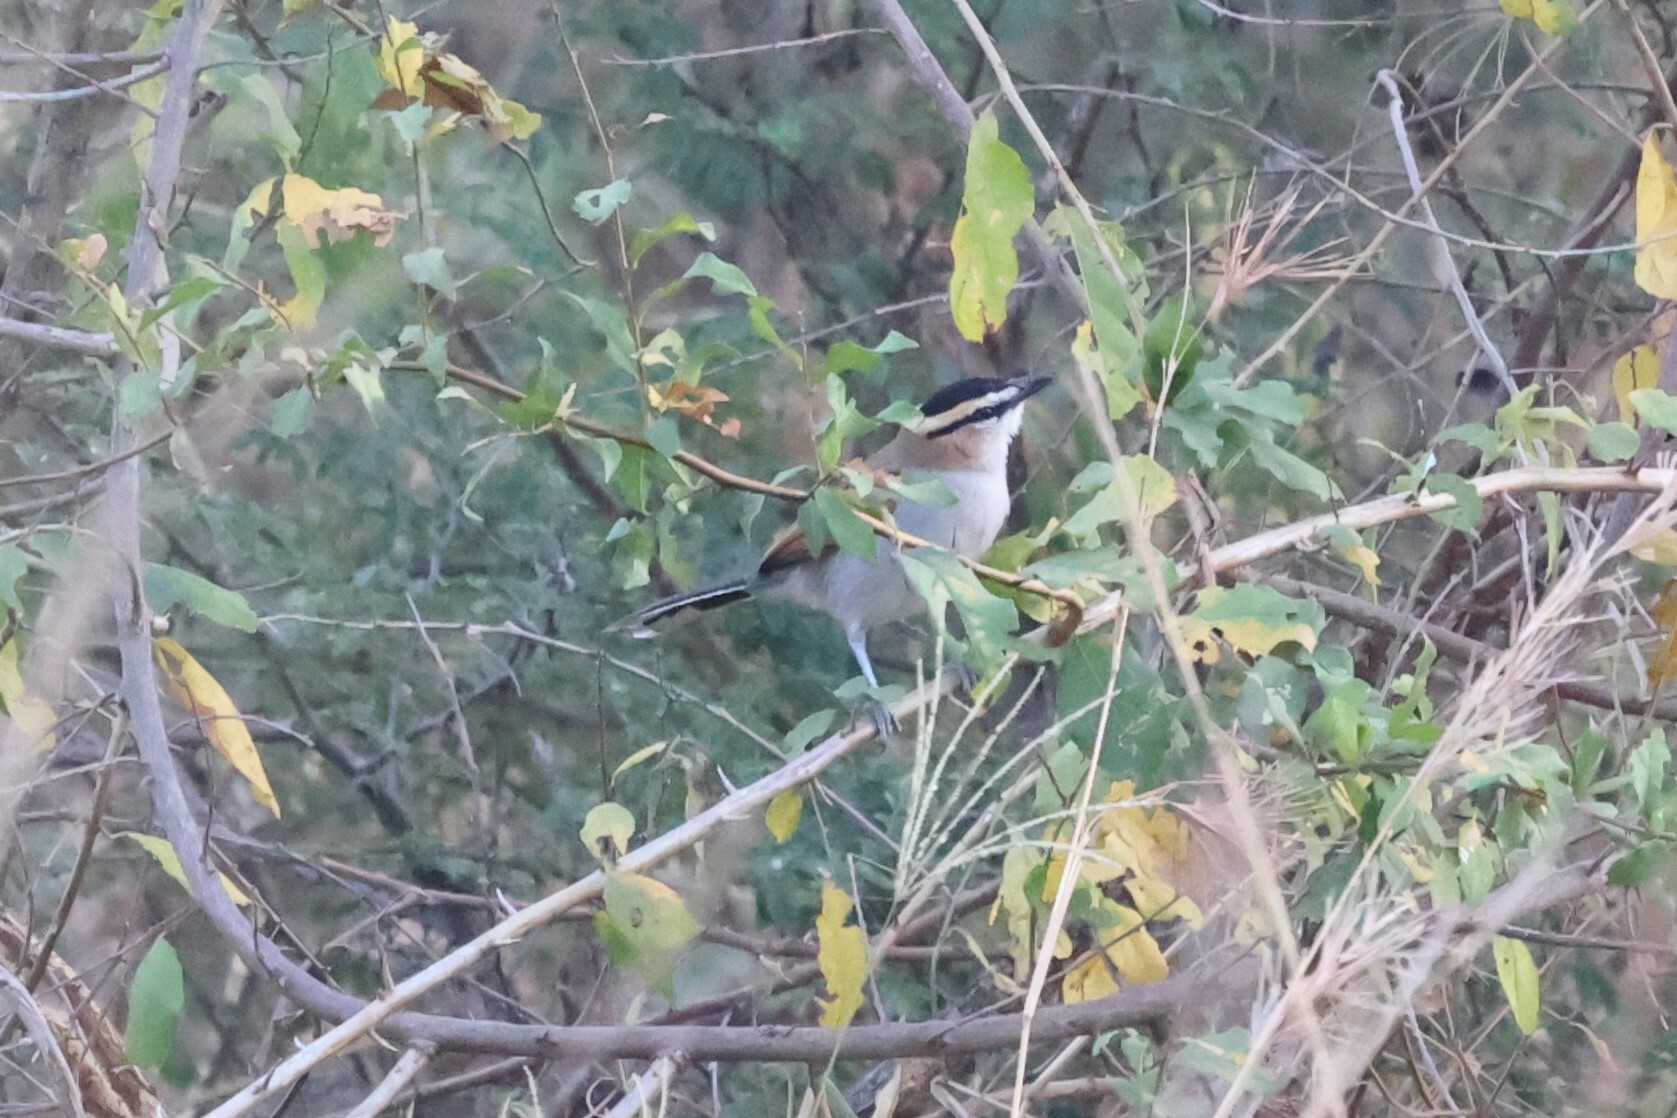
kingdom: Animalia
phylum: Chordata
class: Aves
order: Passeriformes
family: Malaconotidae
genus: Tchagra
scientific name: Tchagra senegalus
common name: Black-crowned tchagra
